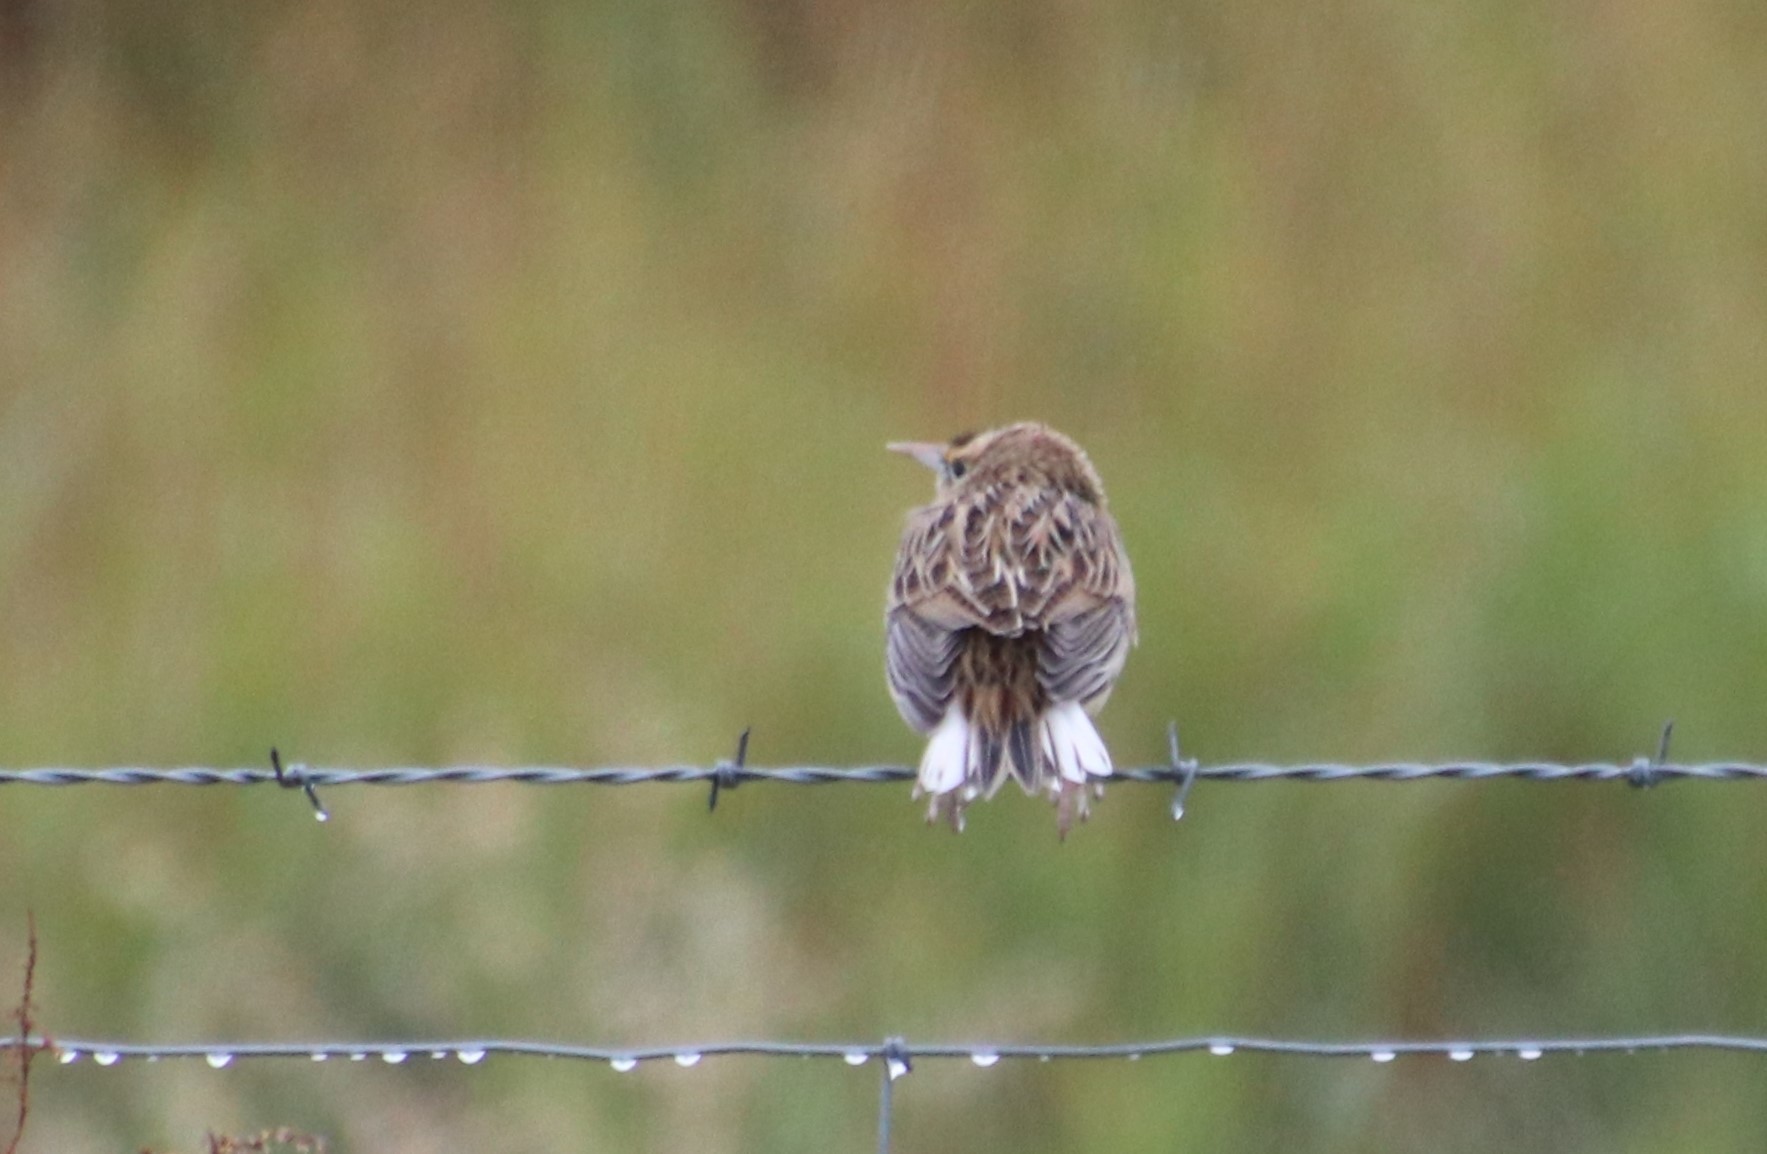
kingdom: Animalia
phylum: Chordata
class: Aves
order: Passeriformes
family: Icteridae
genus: Sturnella
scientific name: Sturnella magna
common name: Eastern meadowlark
